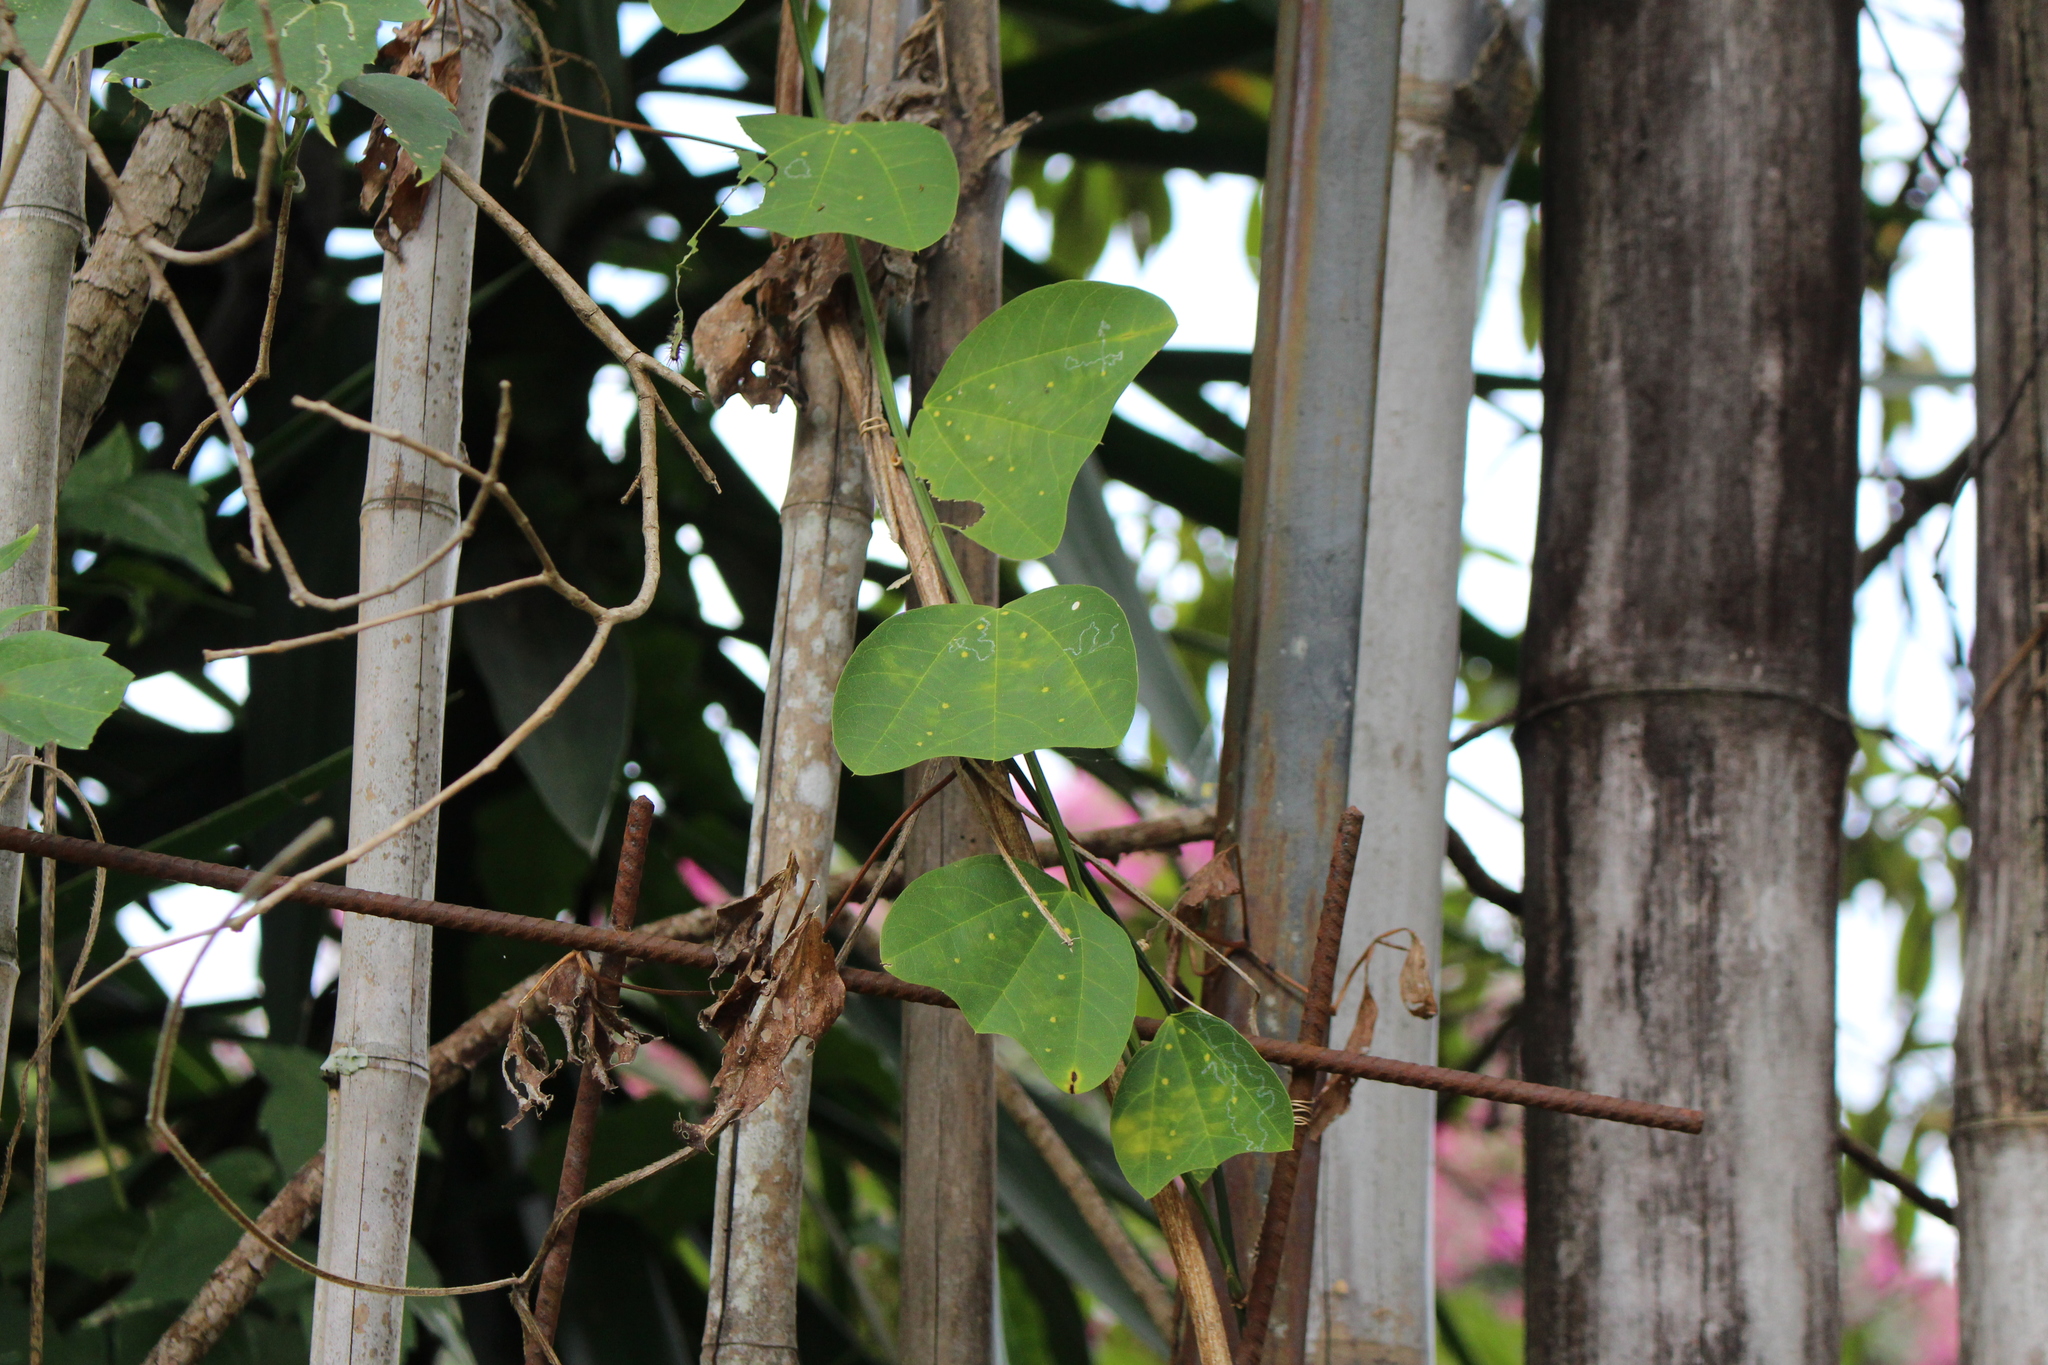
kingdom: Plantae
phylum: Tracheophyta
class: Magnoliopsida
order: Malpighiales
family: Passifloraceae
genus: Passiflora
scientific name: Passiflora biflora
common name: Twoflower passionflower
